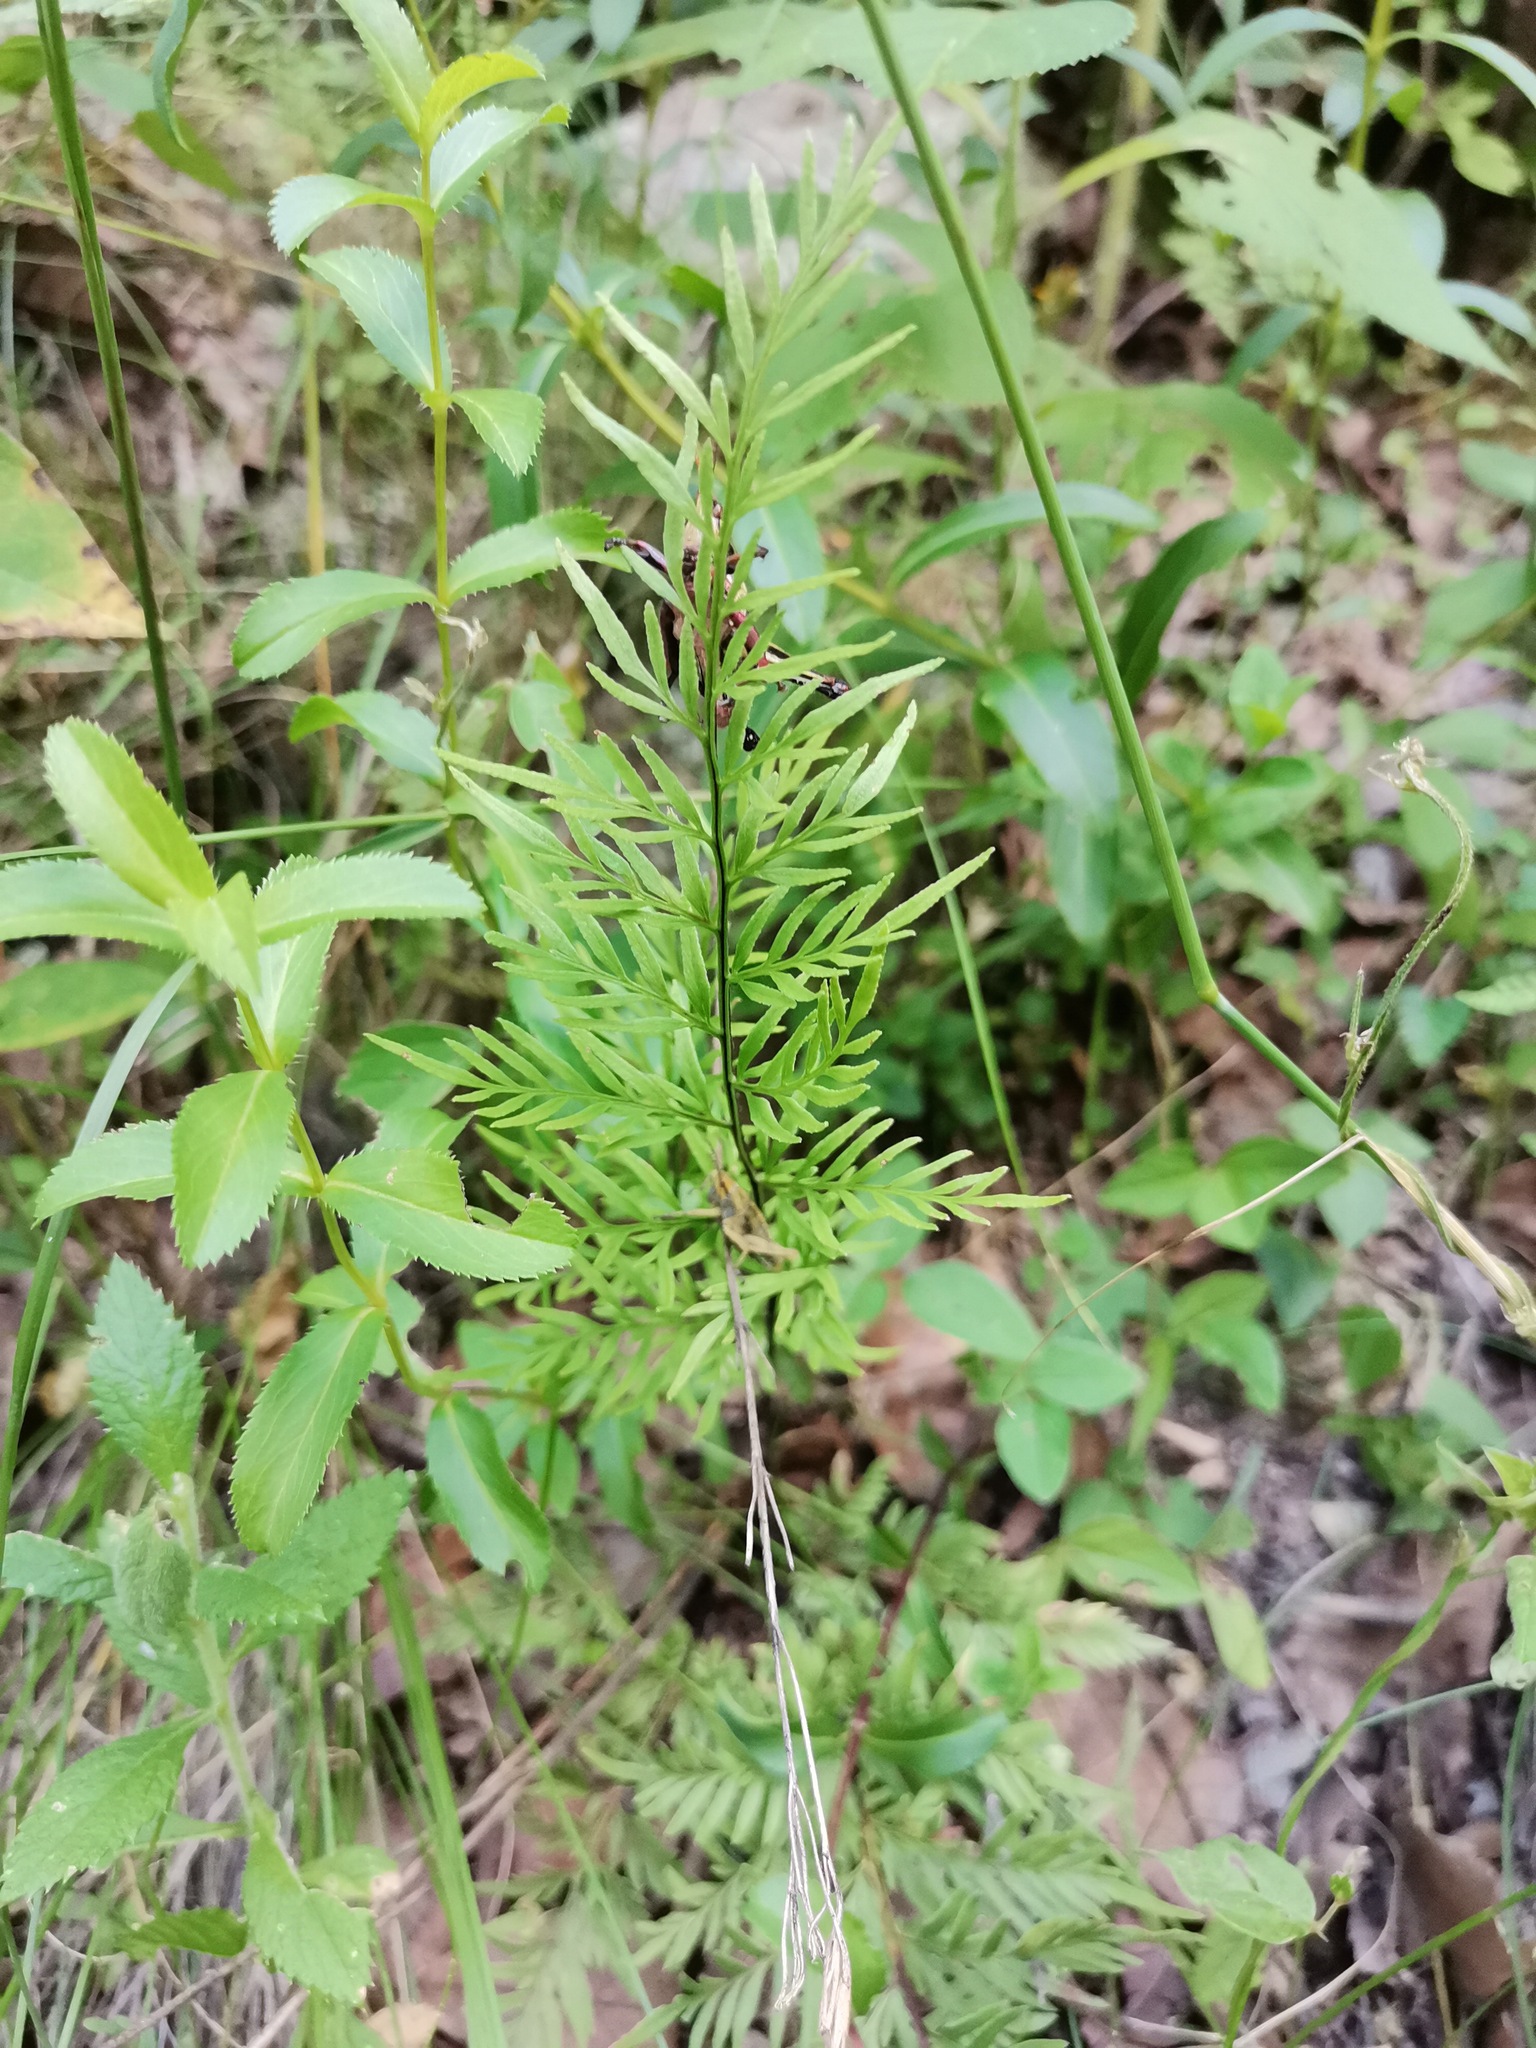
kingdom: Plantae
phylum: Tracheophyta
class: Polypodiopsida
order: Polypodiales
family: Pteridaceae
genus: Gaga
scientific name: Gaga kaulfussii
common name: Glandular lip fern
